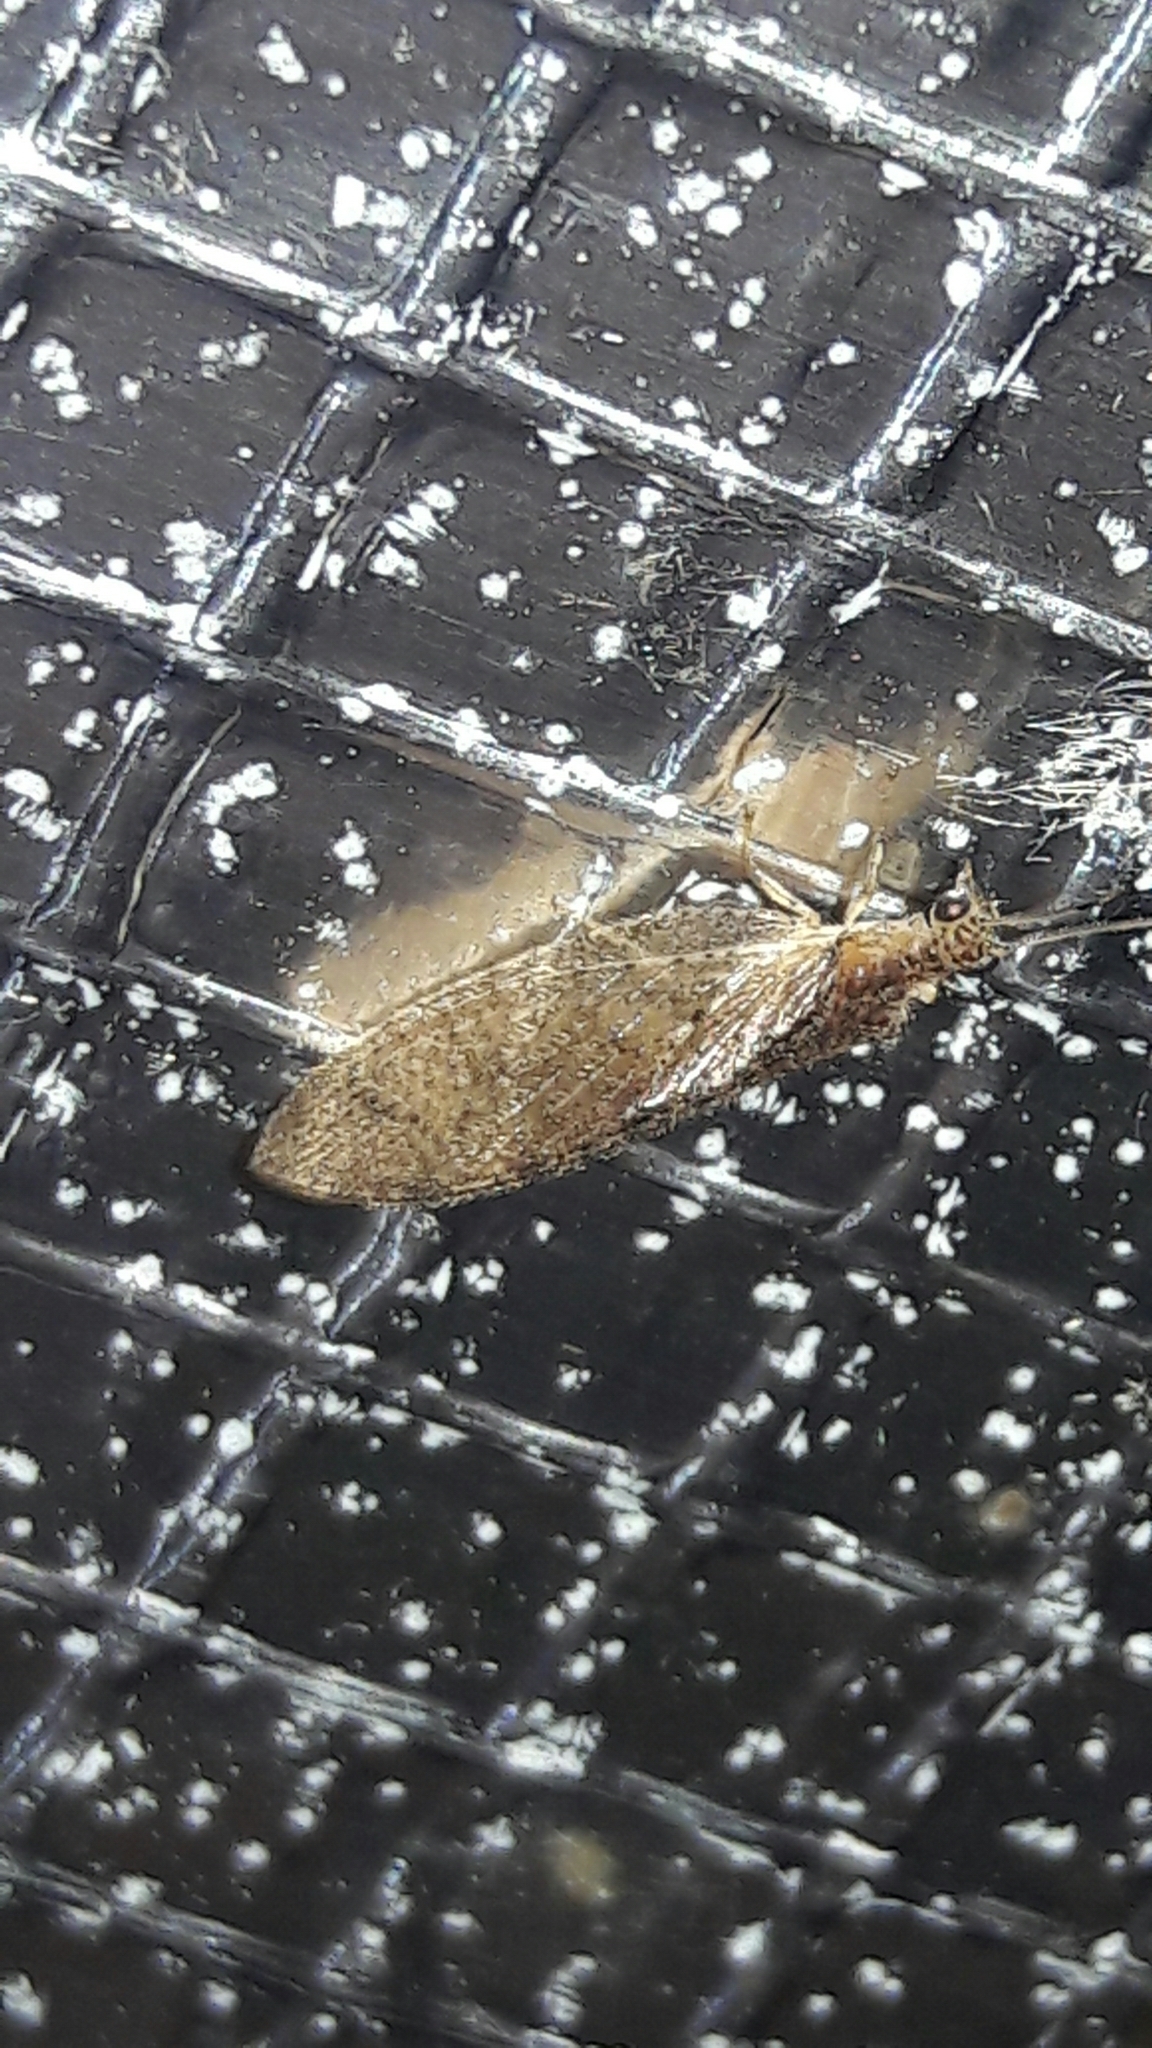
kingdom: Animalia
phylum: Arthropoda
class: Insecta
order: Neuroptera
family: Hemerobiidae
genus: Nusalala
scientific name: Nusalala tessellata
